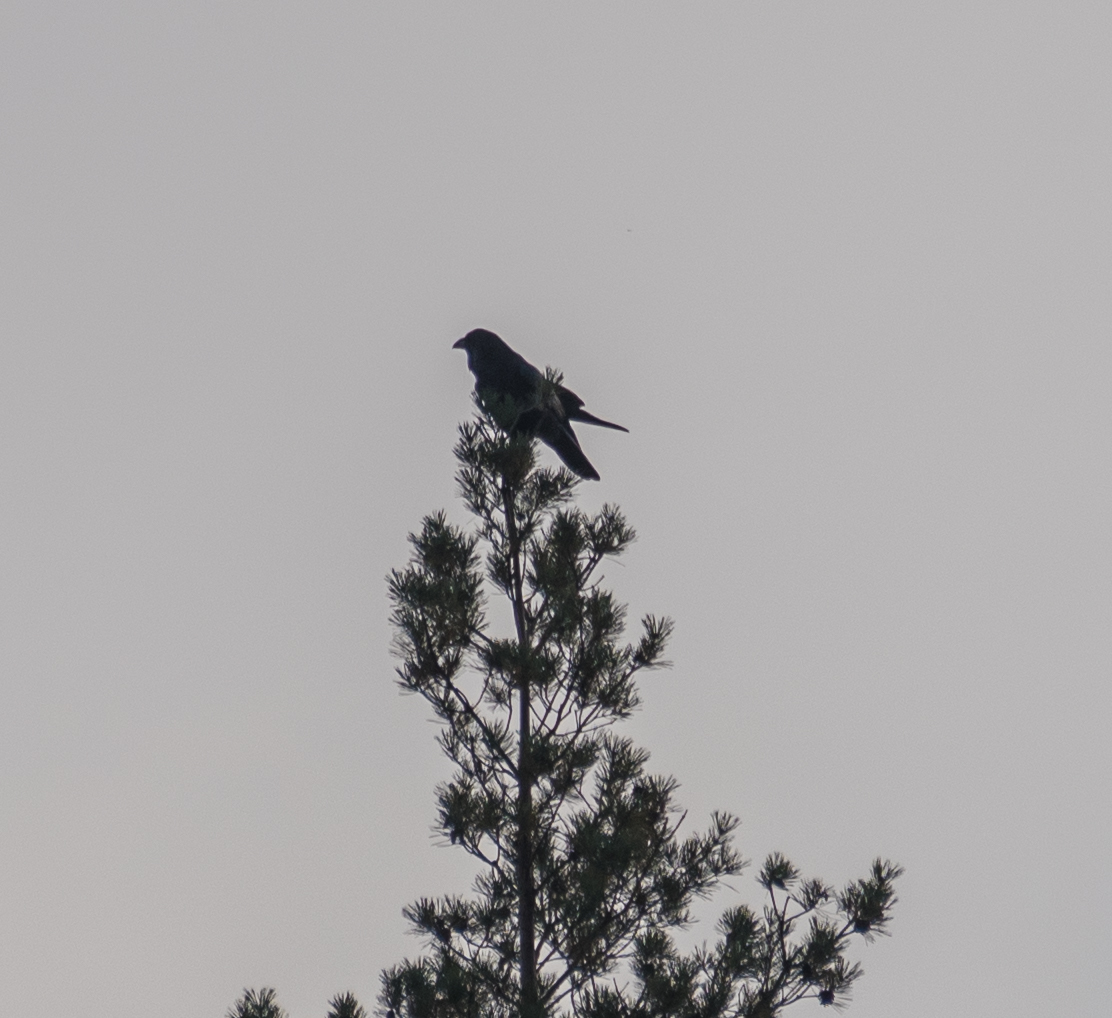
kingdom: Animalia
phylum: Chordata
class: Aves
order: Passeriformes
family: Corvidae
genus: Corvus
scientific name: Corvus corax
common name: Common raven
